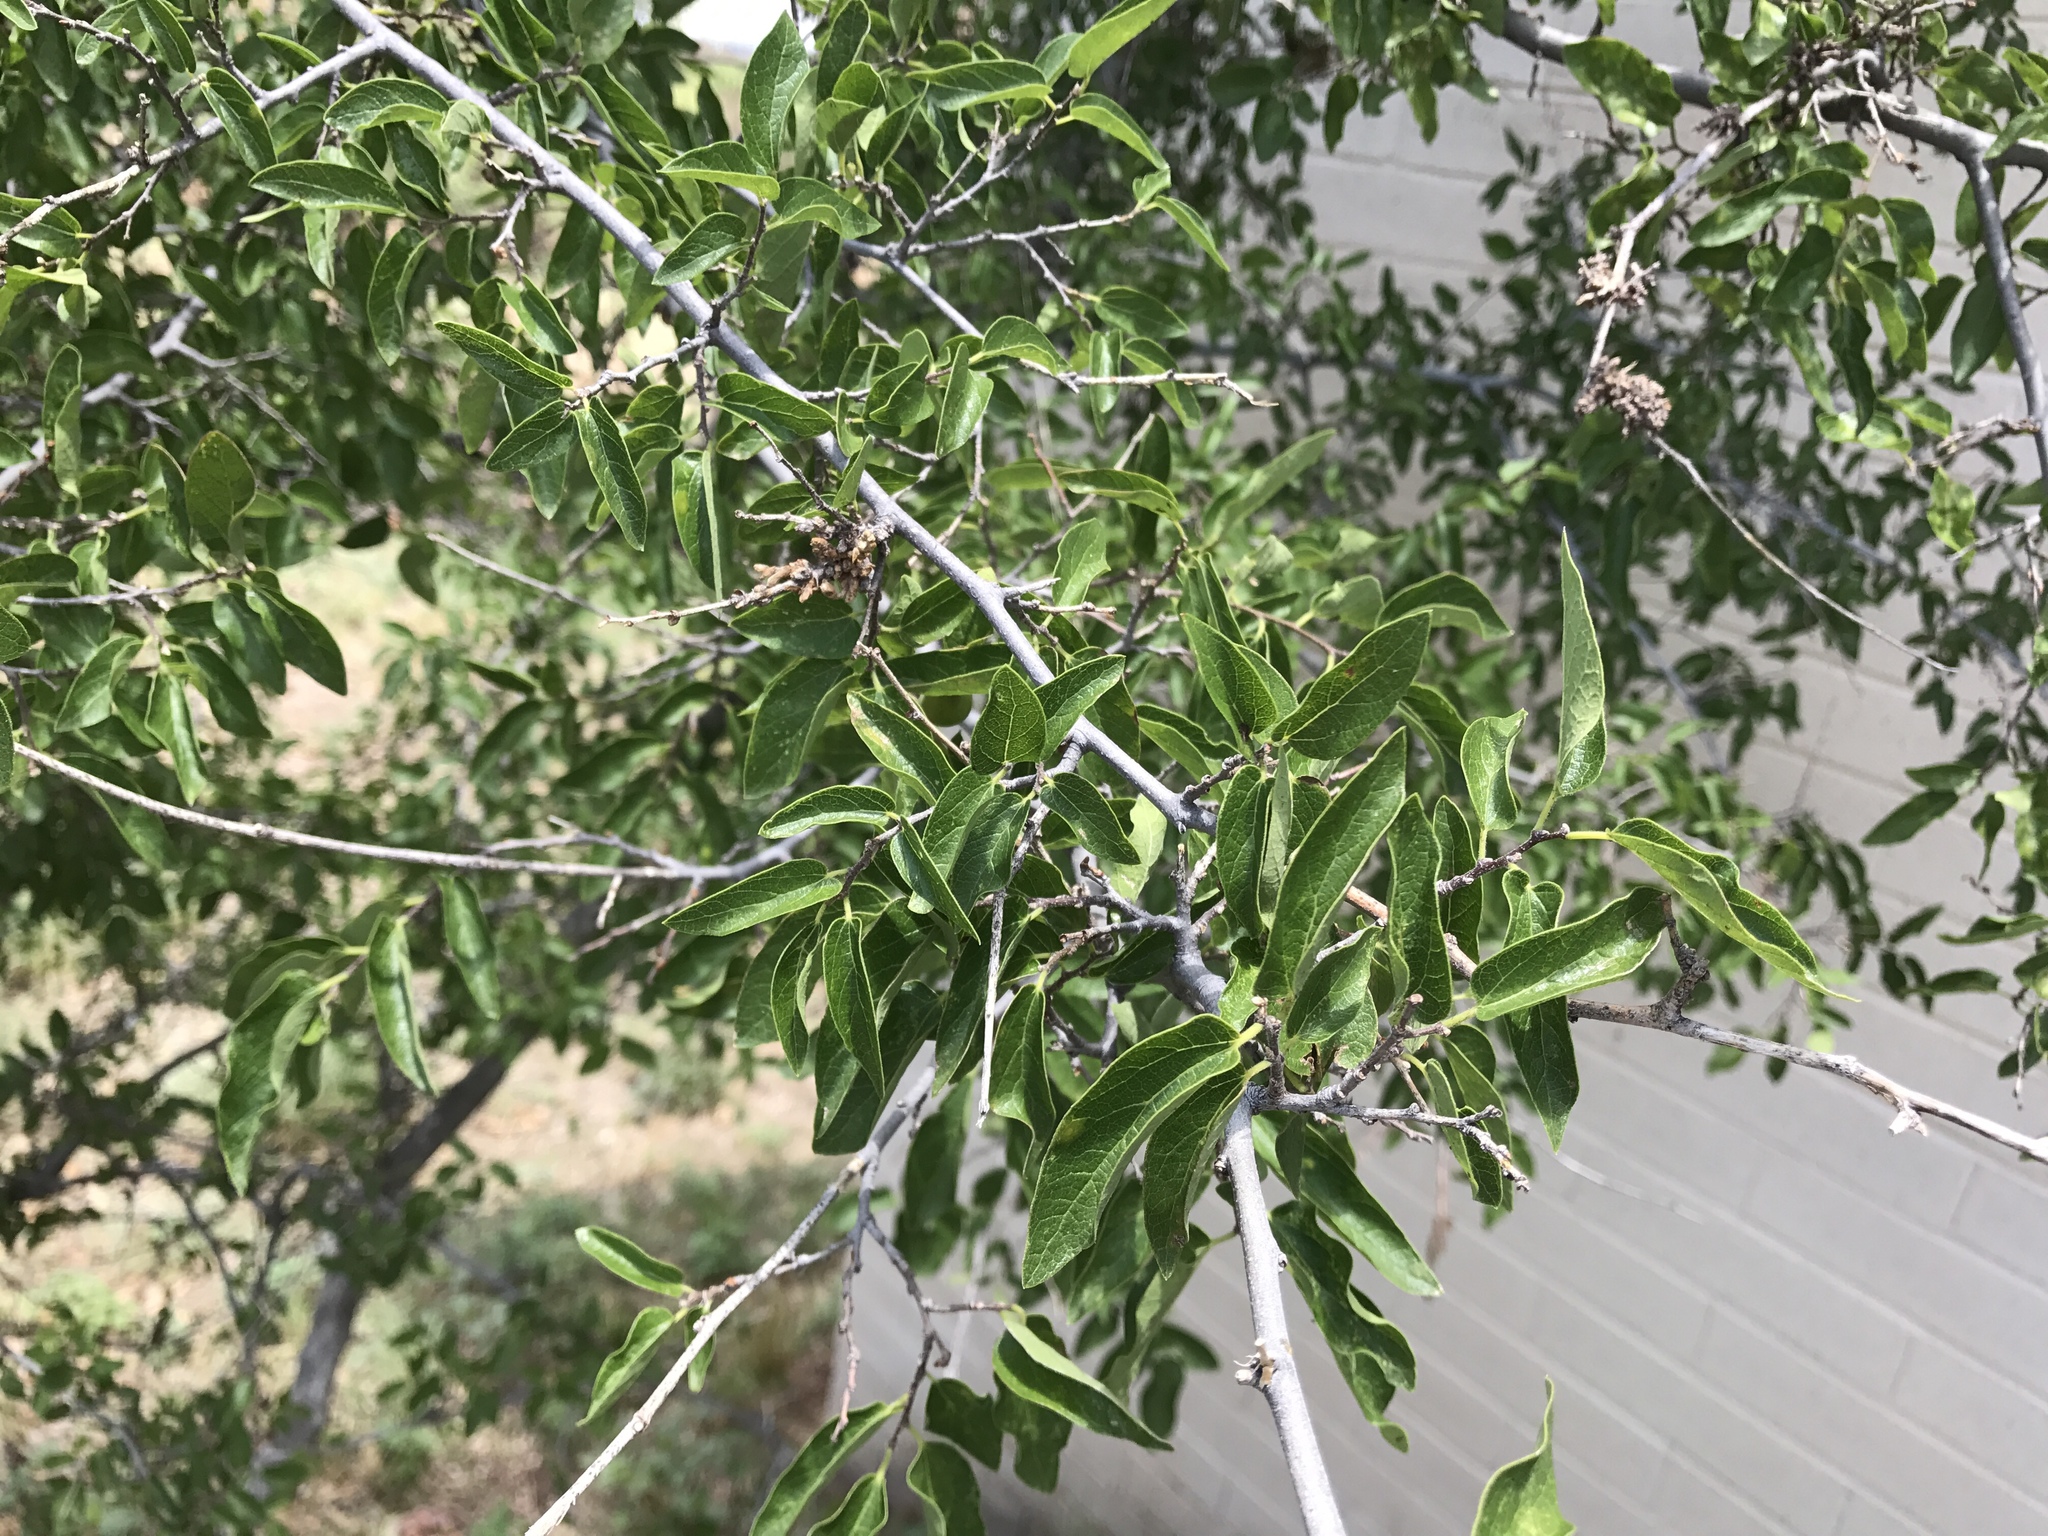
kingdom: Plantae
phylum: Tracheophyta
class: Magnoliopsida
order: Rosales
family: Cannabaceae
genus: Celtis
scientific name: Celtis pallida
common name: Desert hackberry
